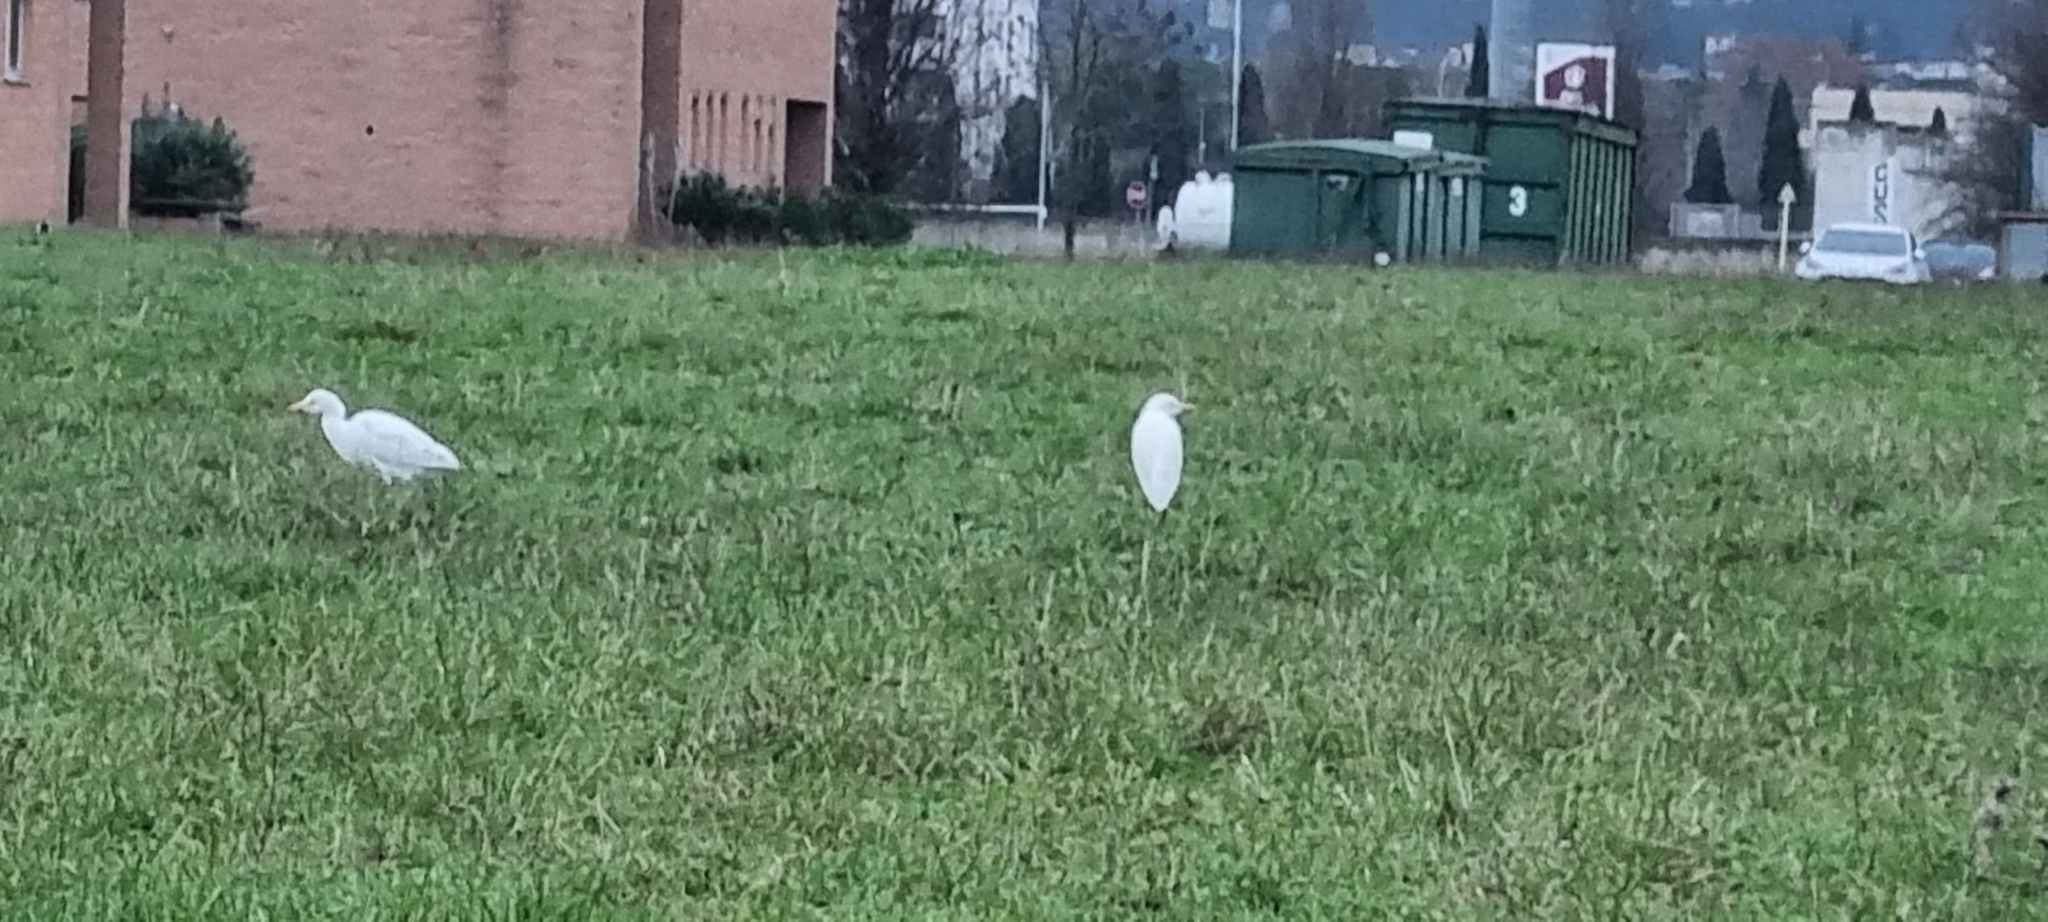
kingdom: Animalia
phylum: Chordata
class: Aves
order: Pelecaniformes
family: Ardeidae
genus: Bubulcus
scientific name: Bubulcus ibis
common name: Cattle egret
